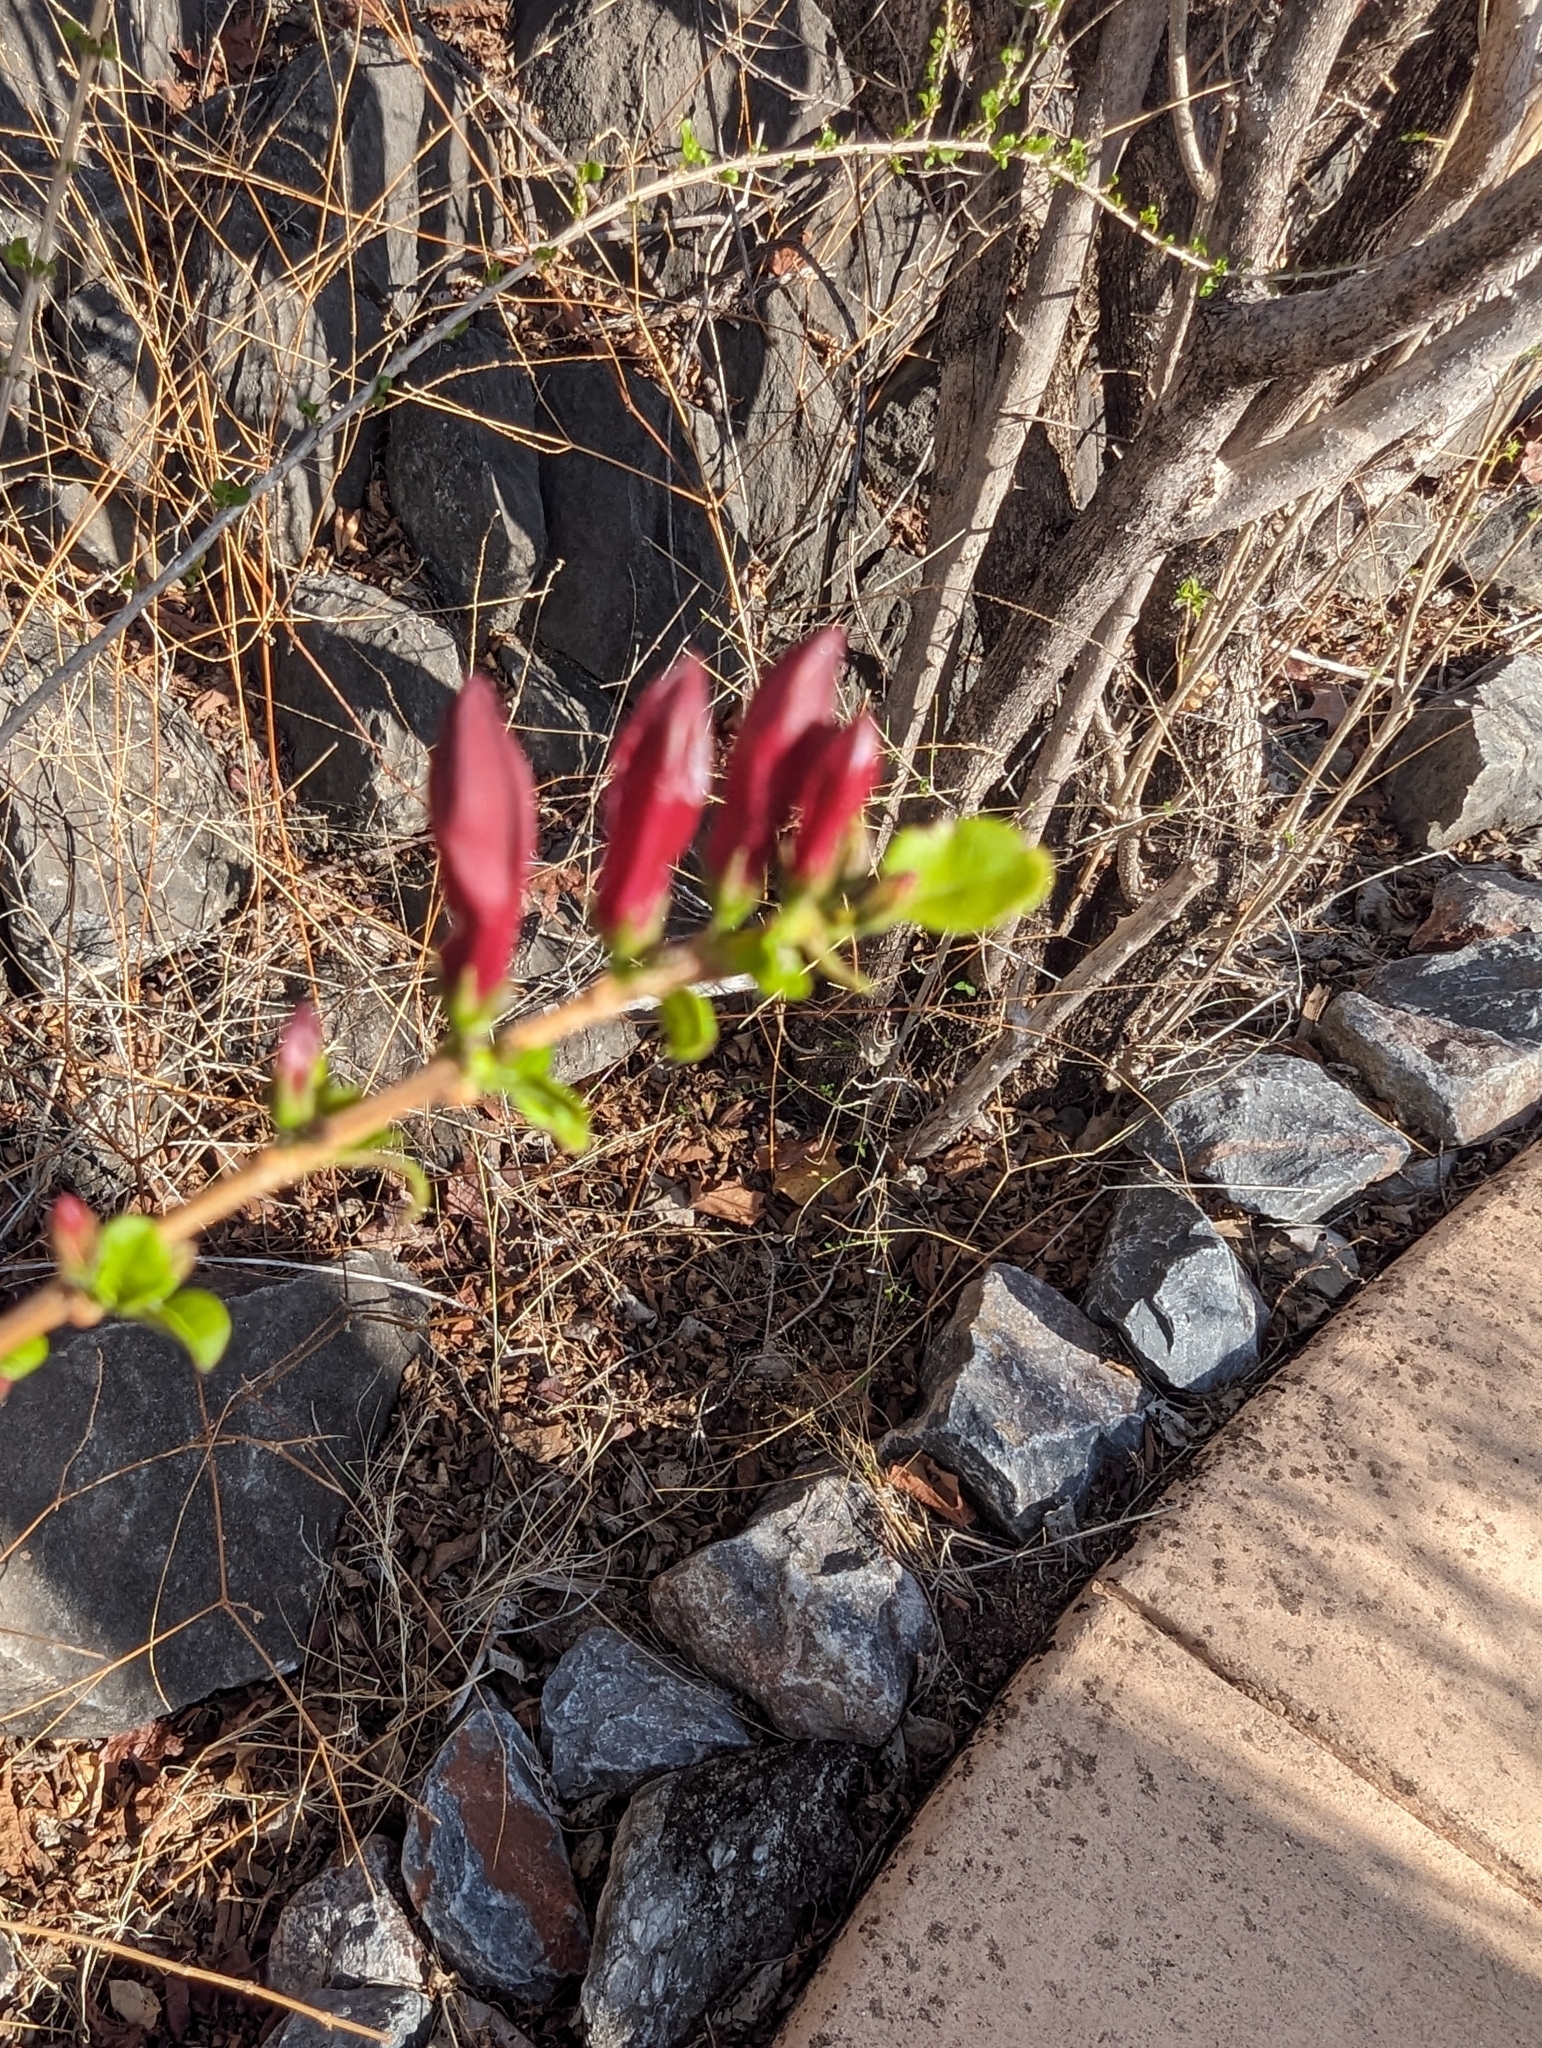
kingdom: Plantae
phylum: Tracheophyta
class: Magnoliopsida
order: Lamiales
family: Acanthaceae
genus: Graptophyllum
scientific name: Graptophyllum excelsum
